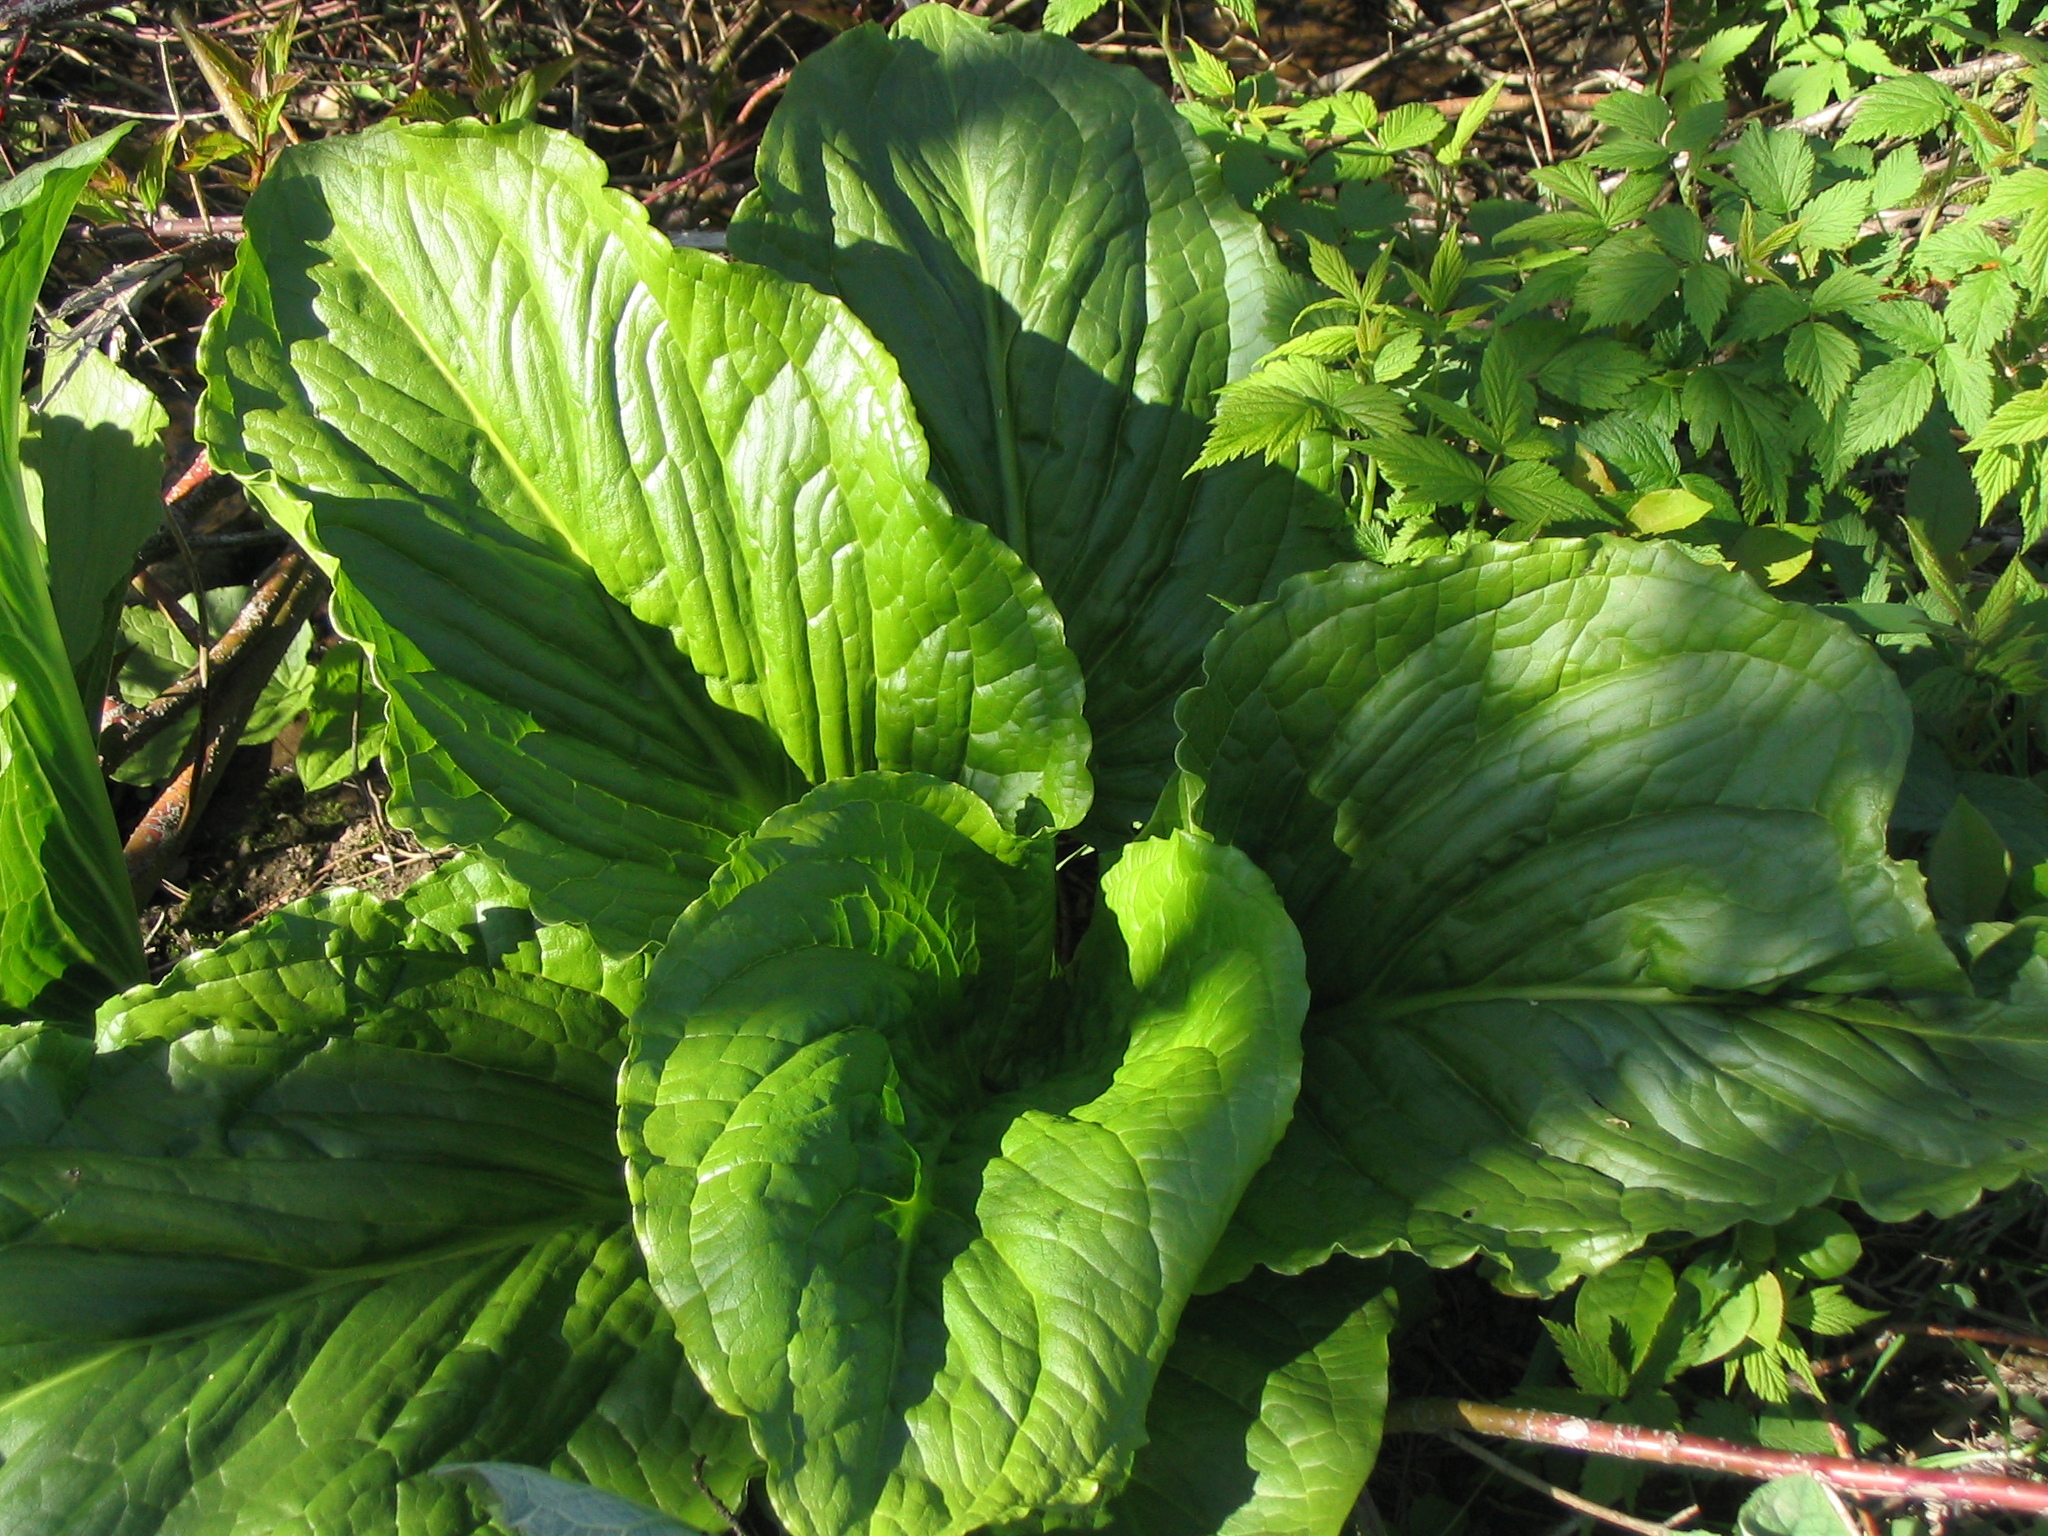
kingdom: Plantae
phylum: Tracheophyta
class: Liliopsida
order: Alismatales
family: Araceae
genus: Symplocarpus
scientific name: Symplocarpus foetidus
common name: Eastern skunk cabbage
